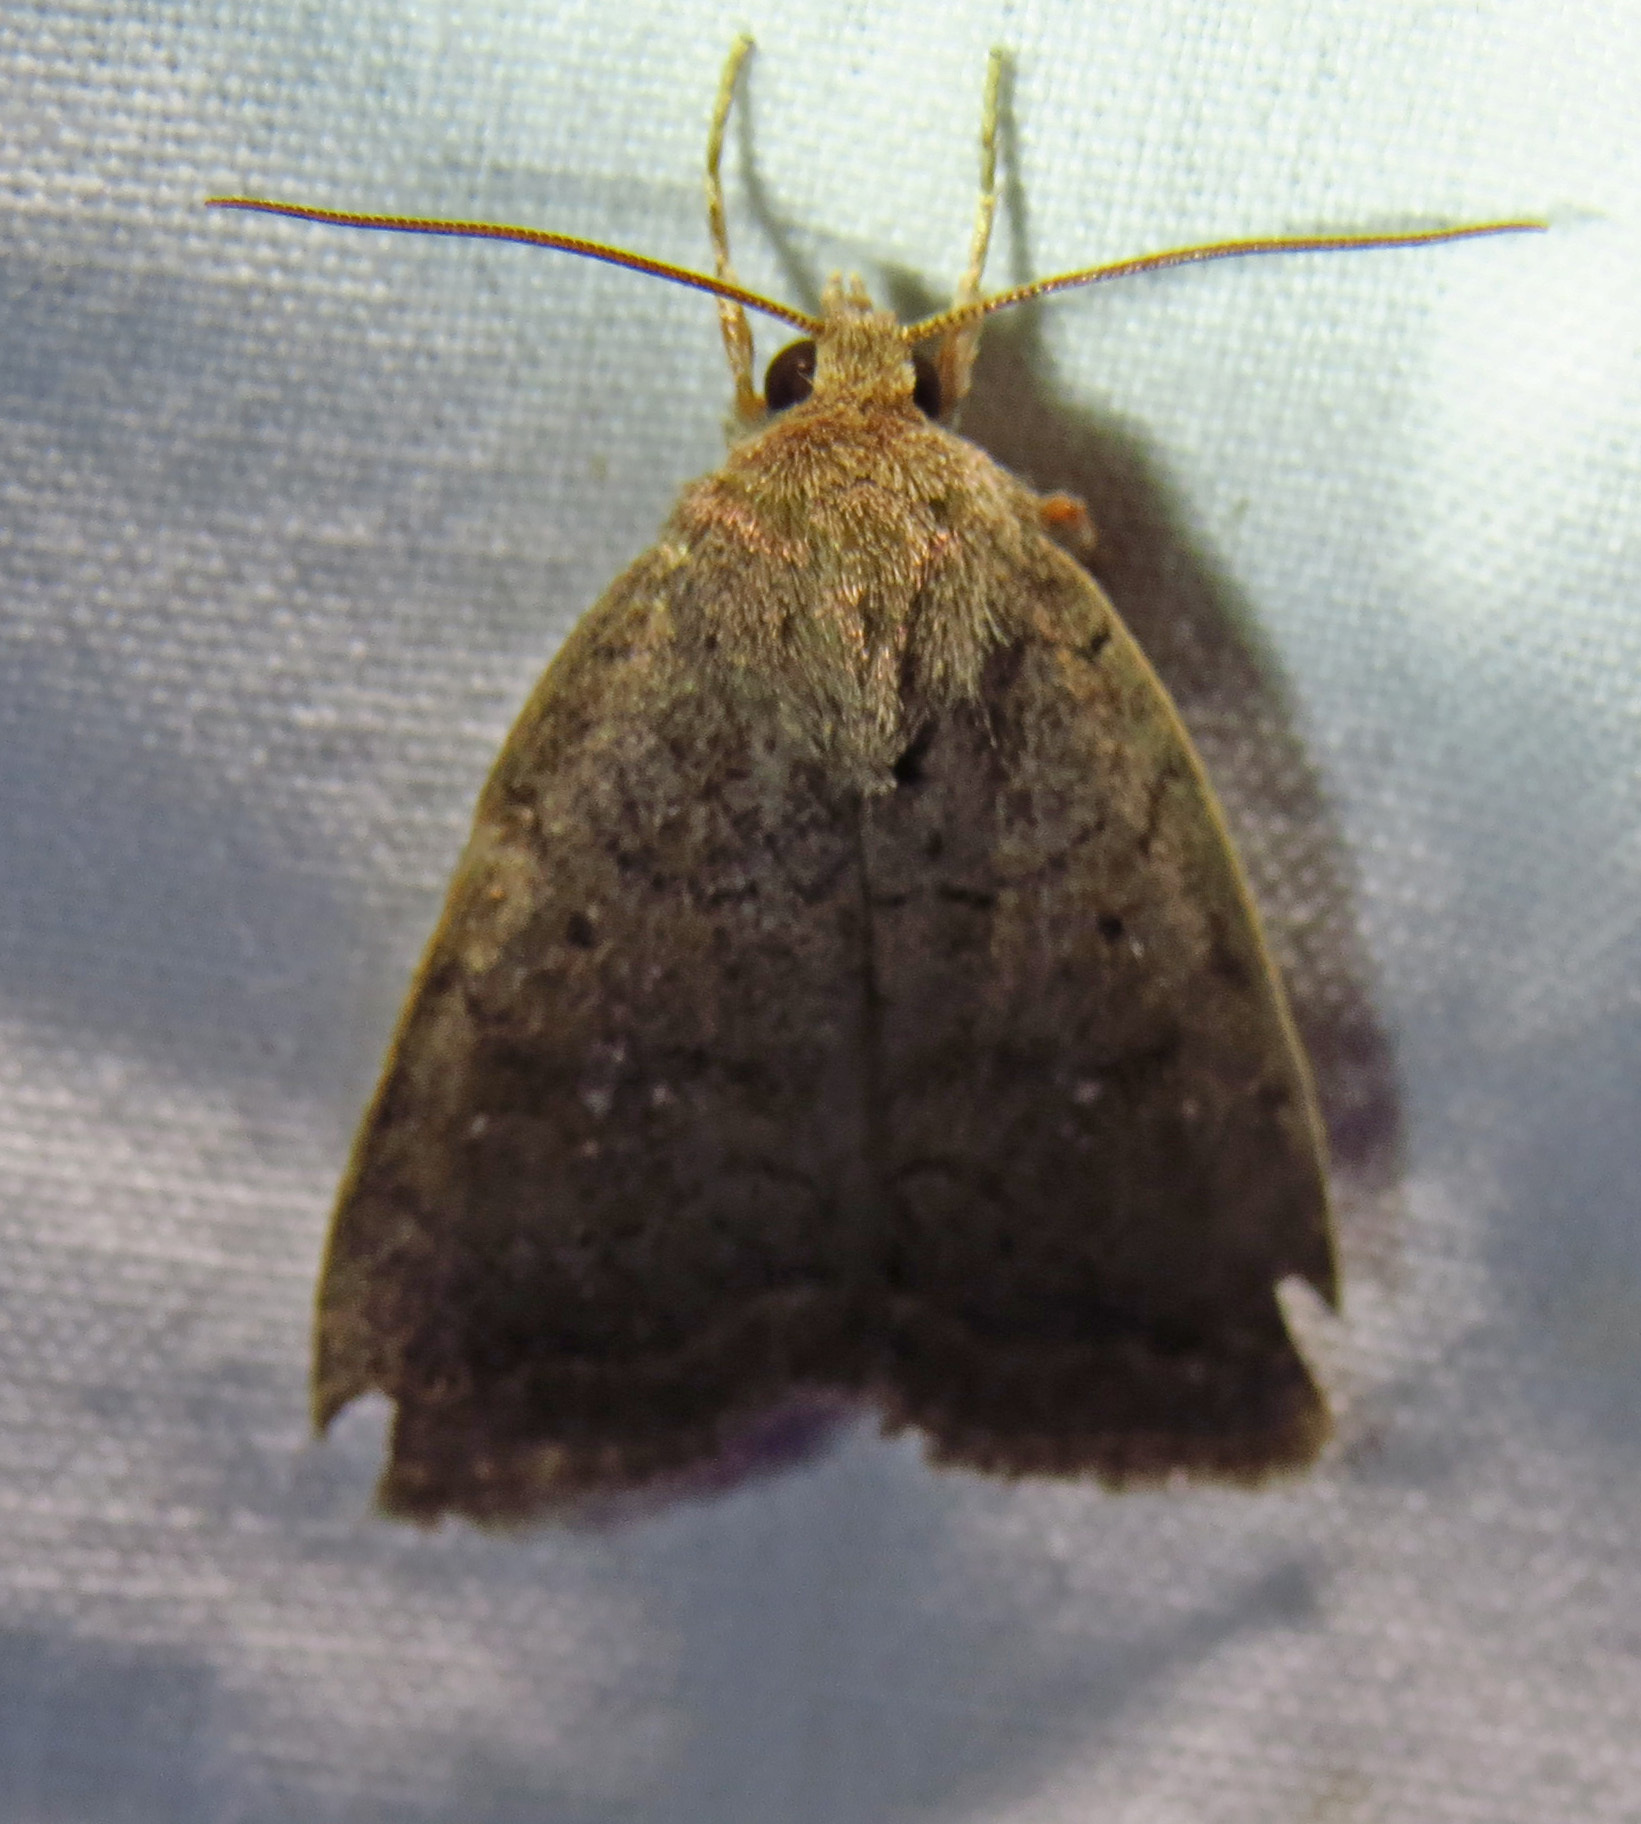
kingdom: Animalia
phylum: Arthropoda
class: Insecta
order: Lepidoptera
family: Noctuidae
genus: Athetis
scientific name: Athetis tarda
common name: Slowpoke moth
